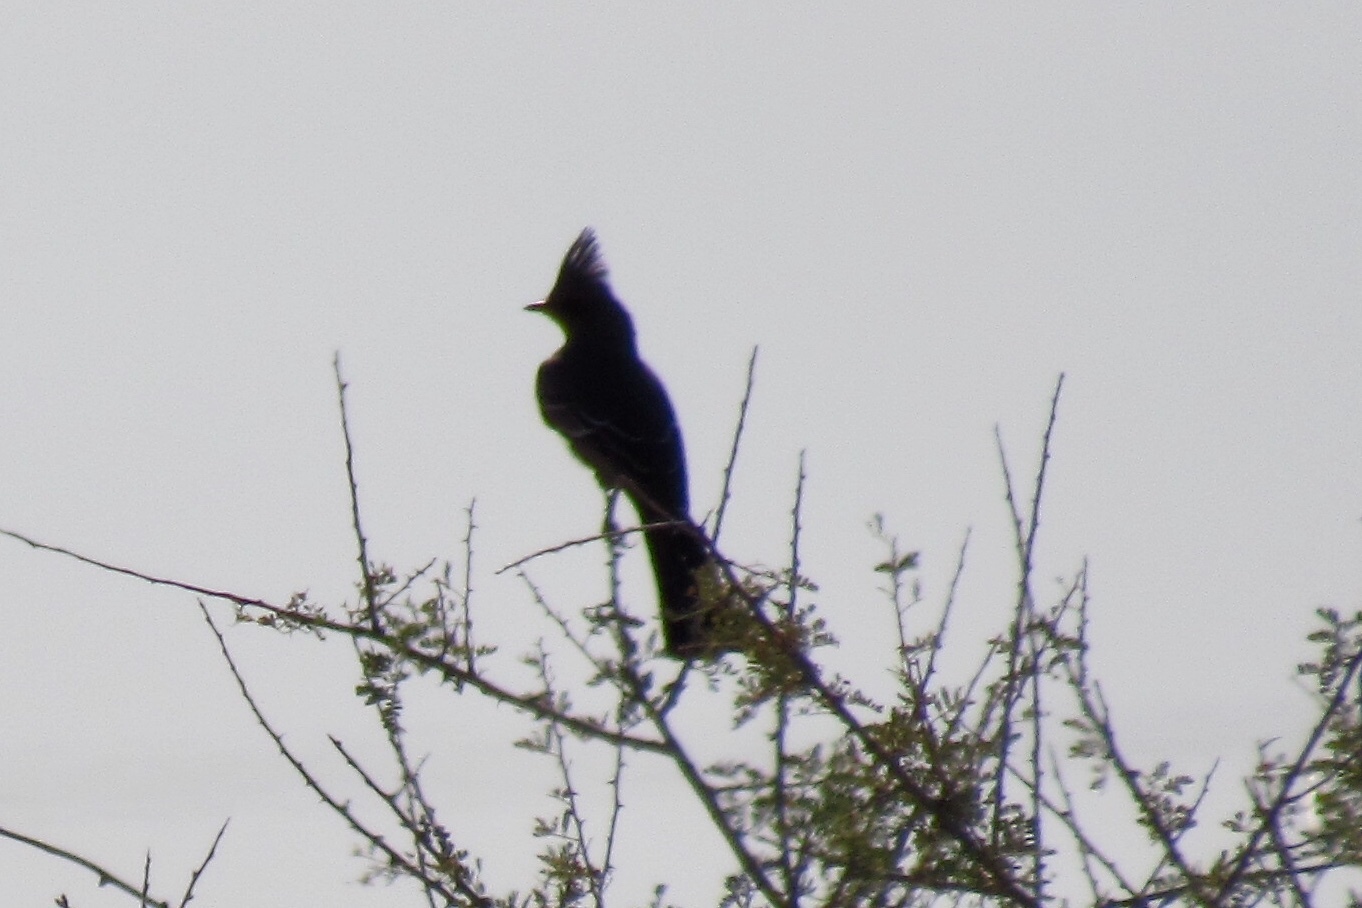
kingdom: Animalia
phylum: Chordata
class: Aves
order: Passeriformes
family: Ptilogonatidae
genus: Phainopepla
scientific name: Phainopepla nitens
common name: Phainopepla
